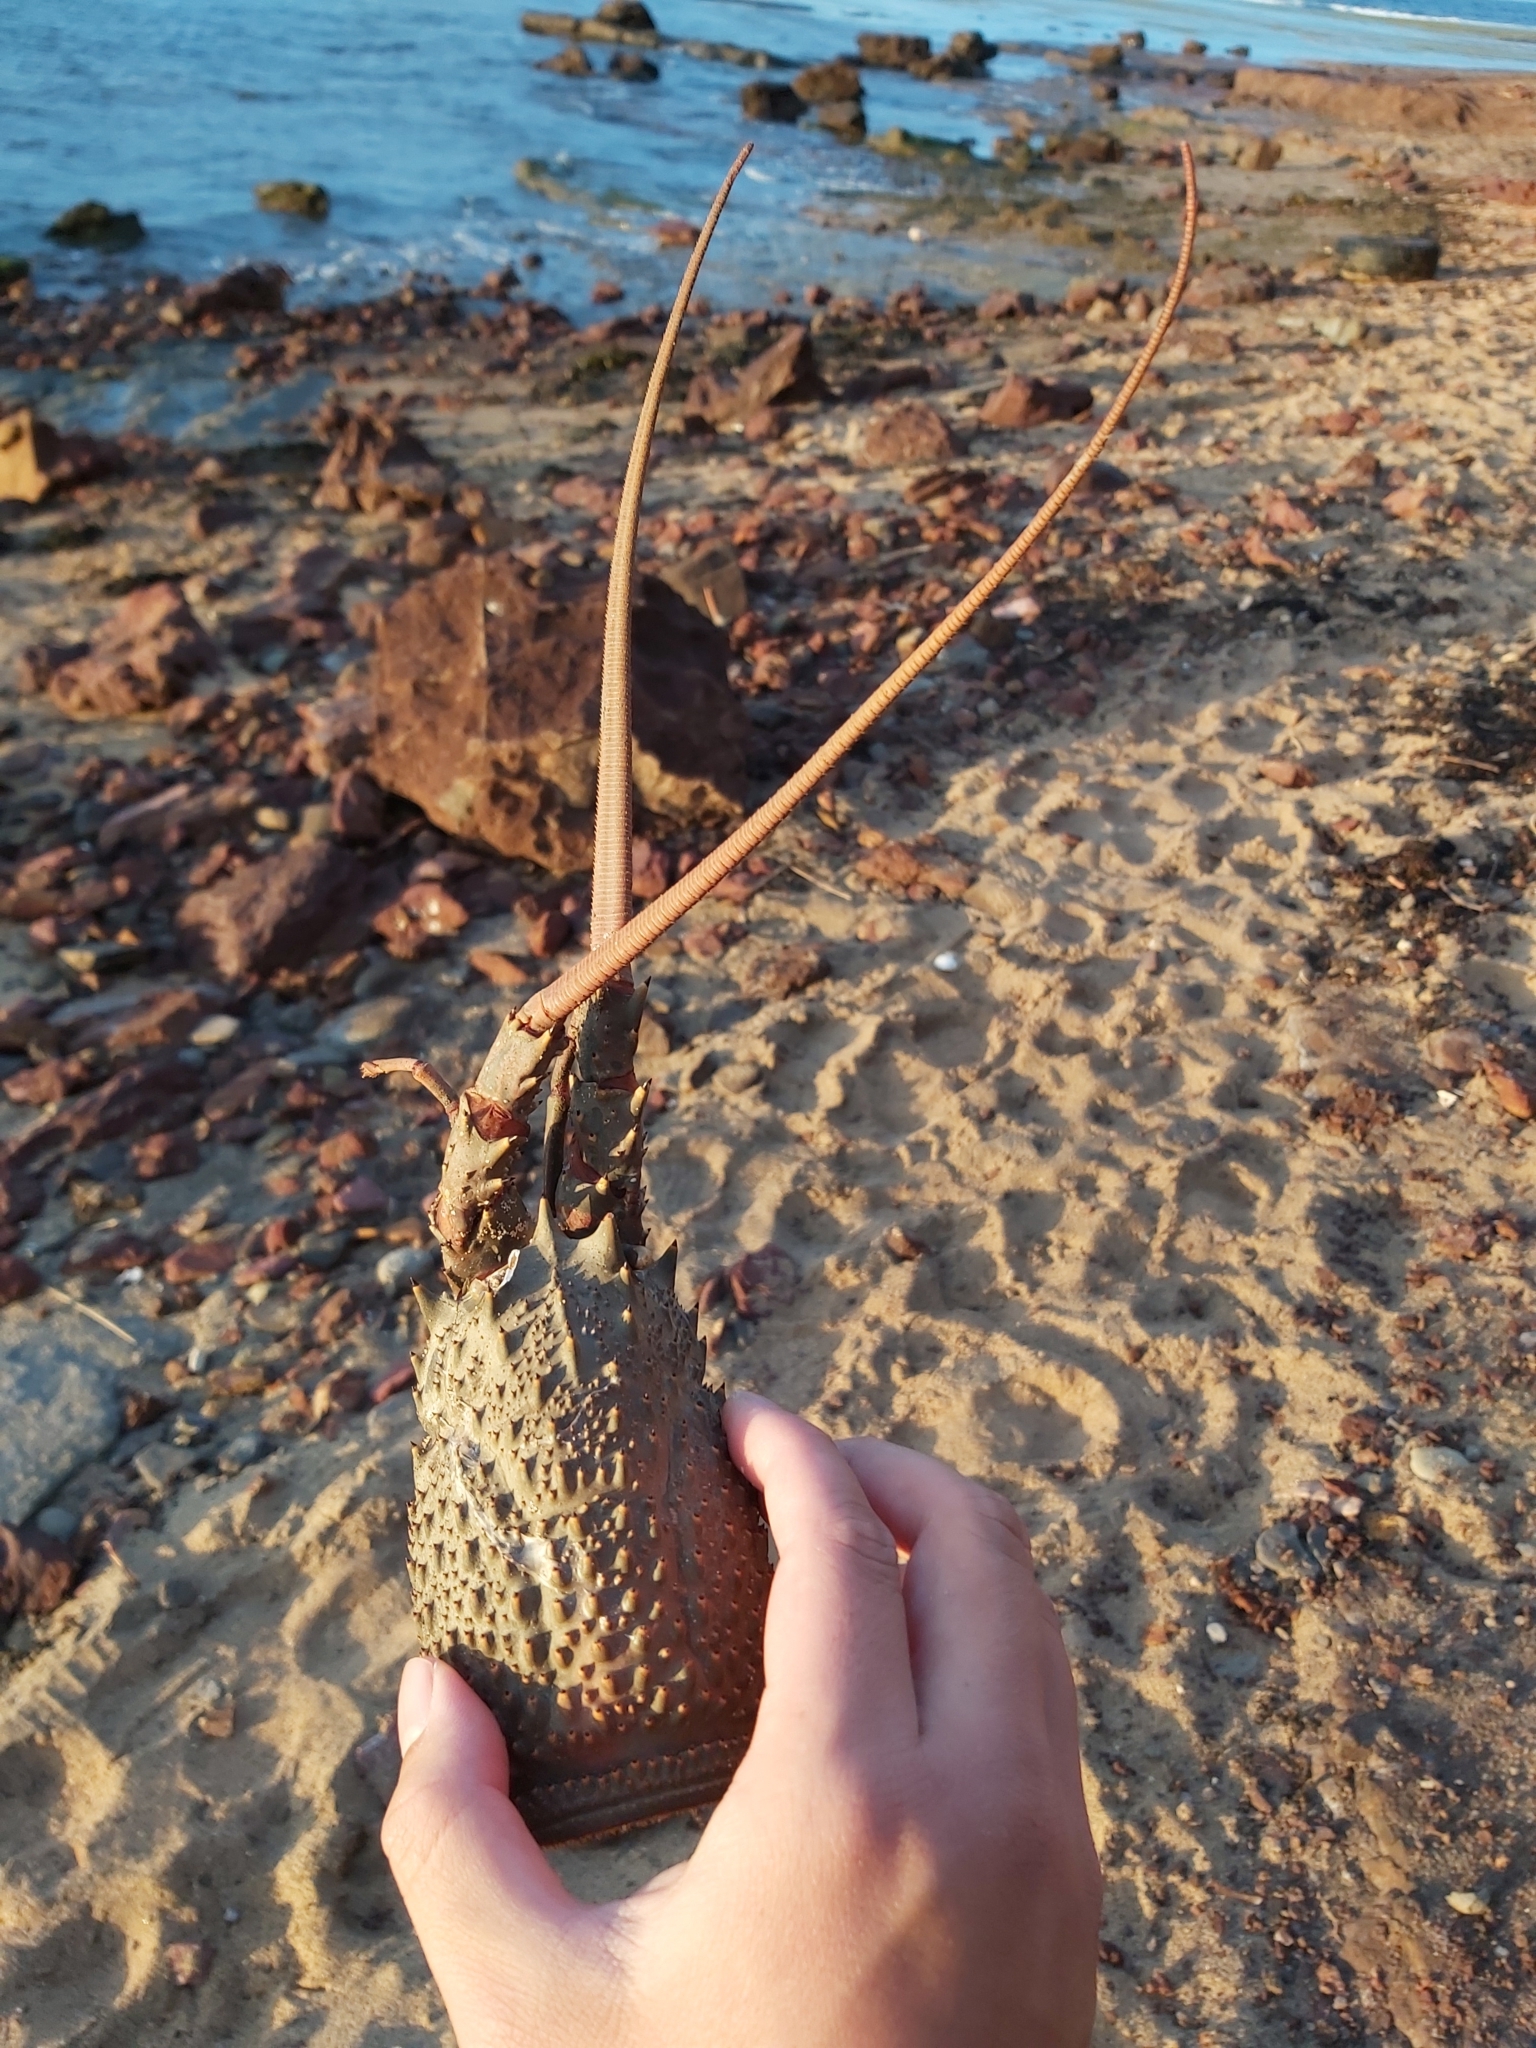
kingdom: Animalia
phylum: Arthropoda
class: Malacostraca
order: Decapoda
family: Palinuridae
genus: Sagmariasus
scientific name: Sagmariasus verreauxi
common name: Green rock lobster
